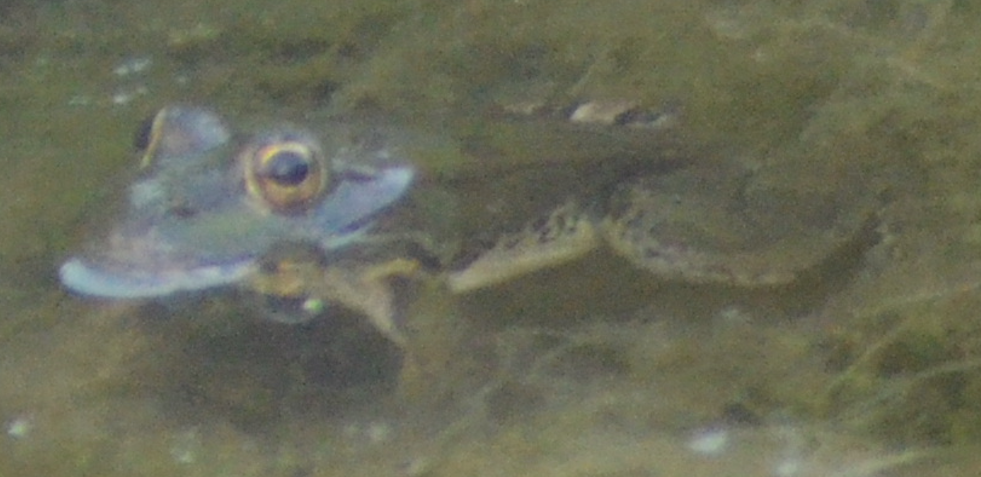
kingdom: Animalia
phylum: Chordata
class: Amphibia
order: Anura
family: Ranidae
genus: Pelophylax
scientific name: Pelophylax perezi
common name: Perez's frog
